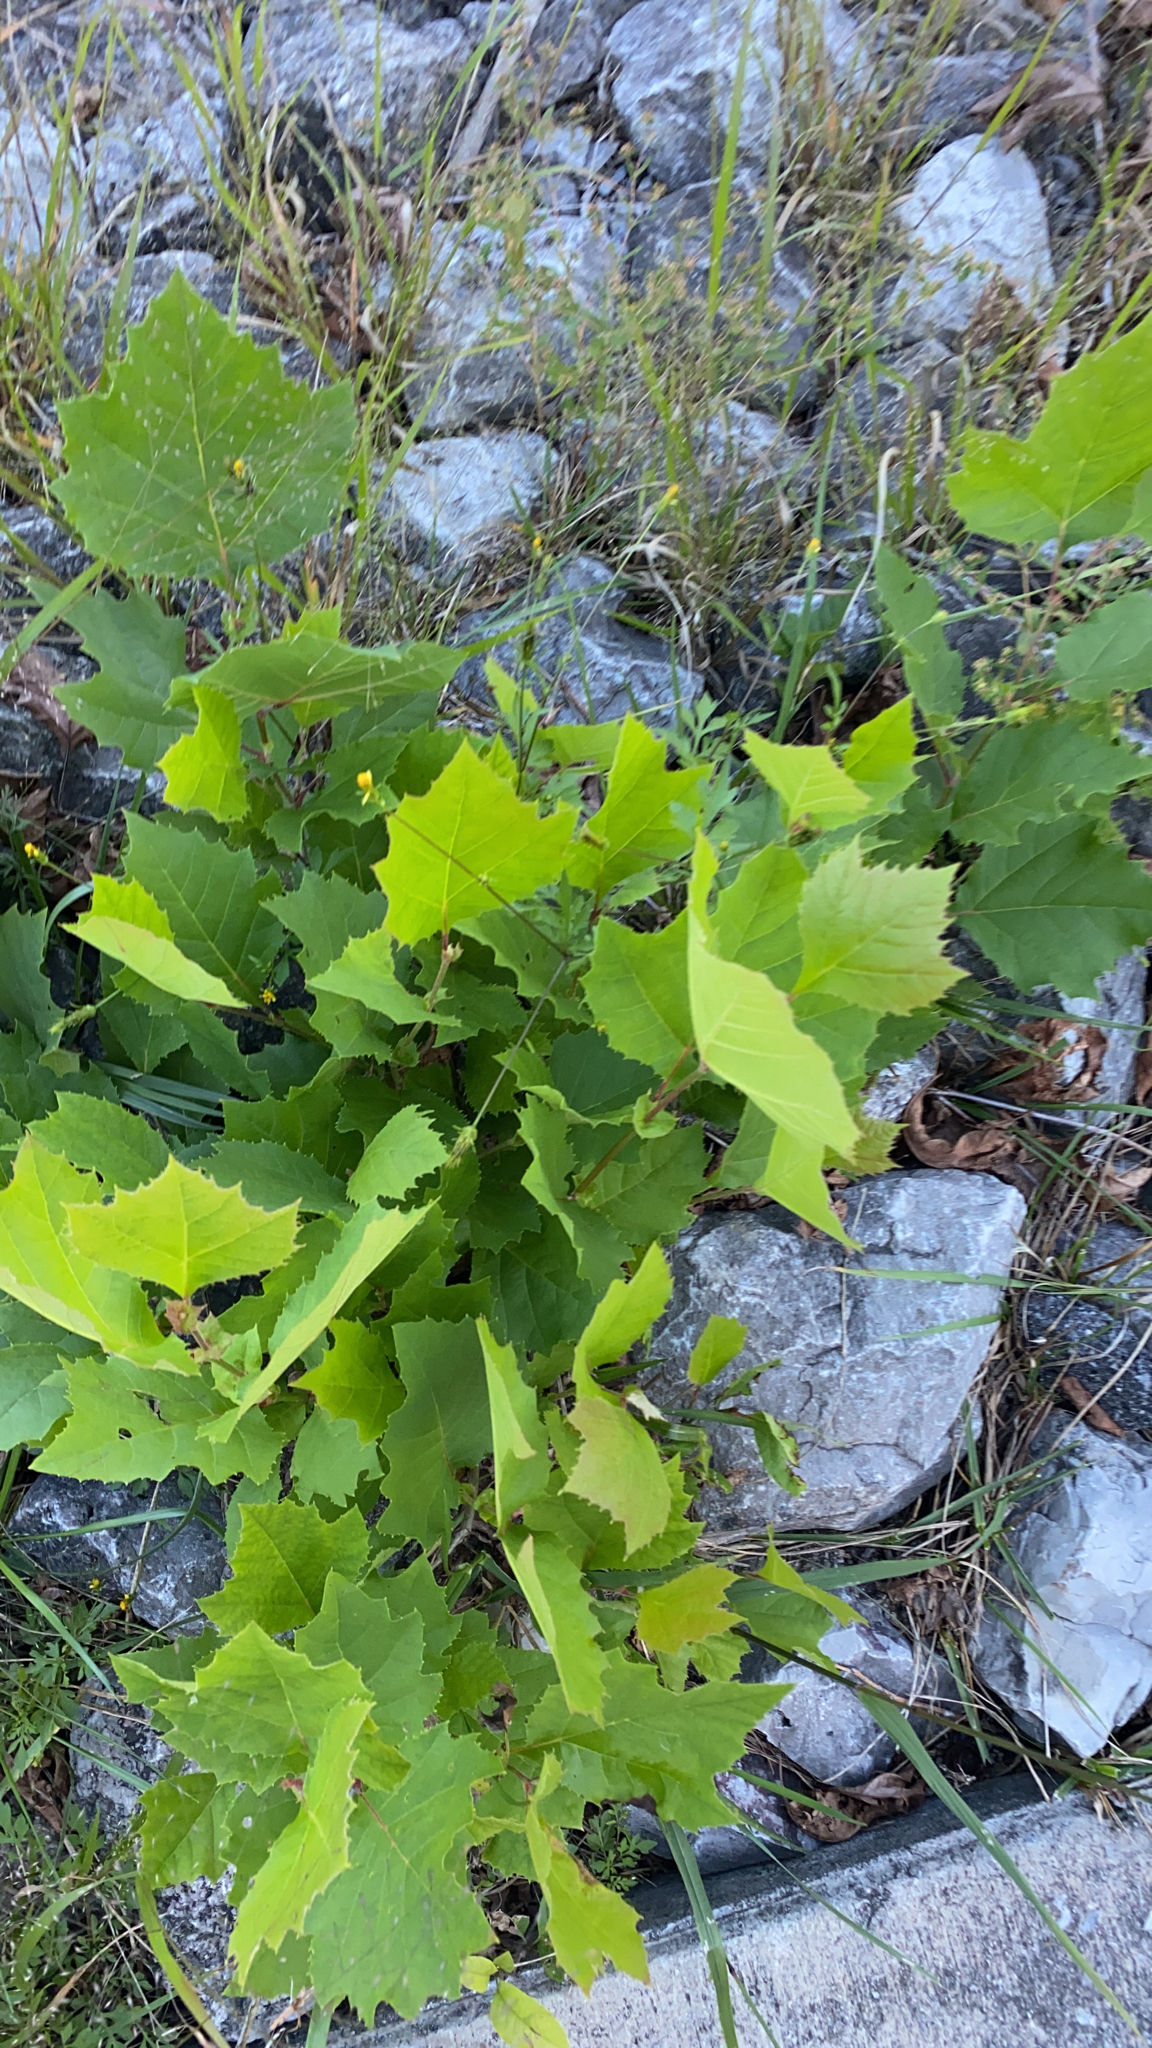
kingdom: Plantae
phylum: Tracheophyta
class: Magnoliopsida
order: Proteales
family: Platanaceae
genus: Platanus
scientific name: Platanus occidentalis
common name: American sycamore
